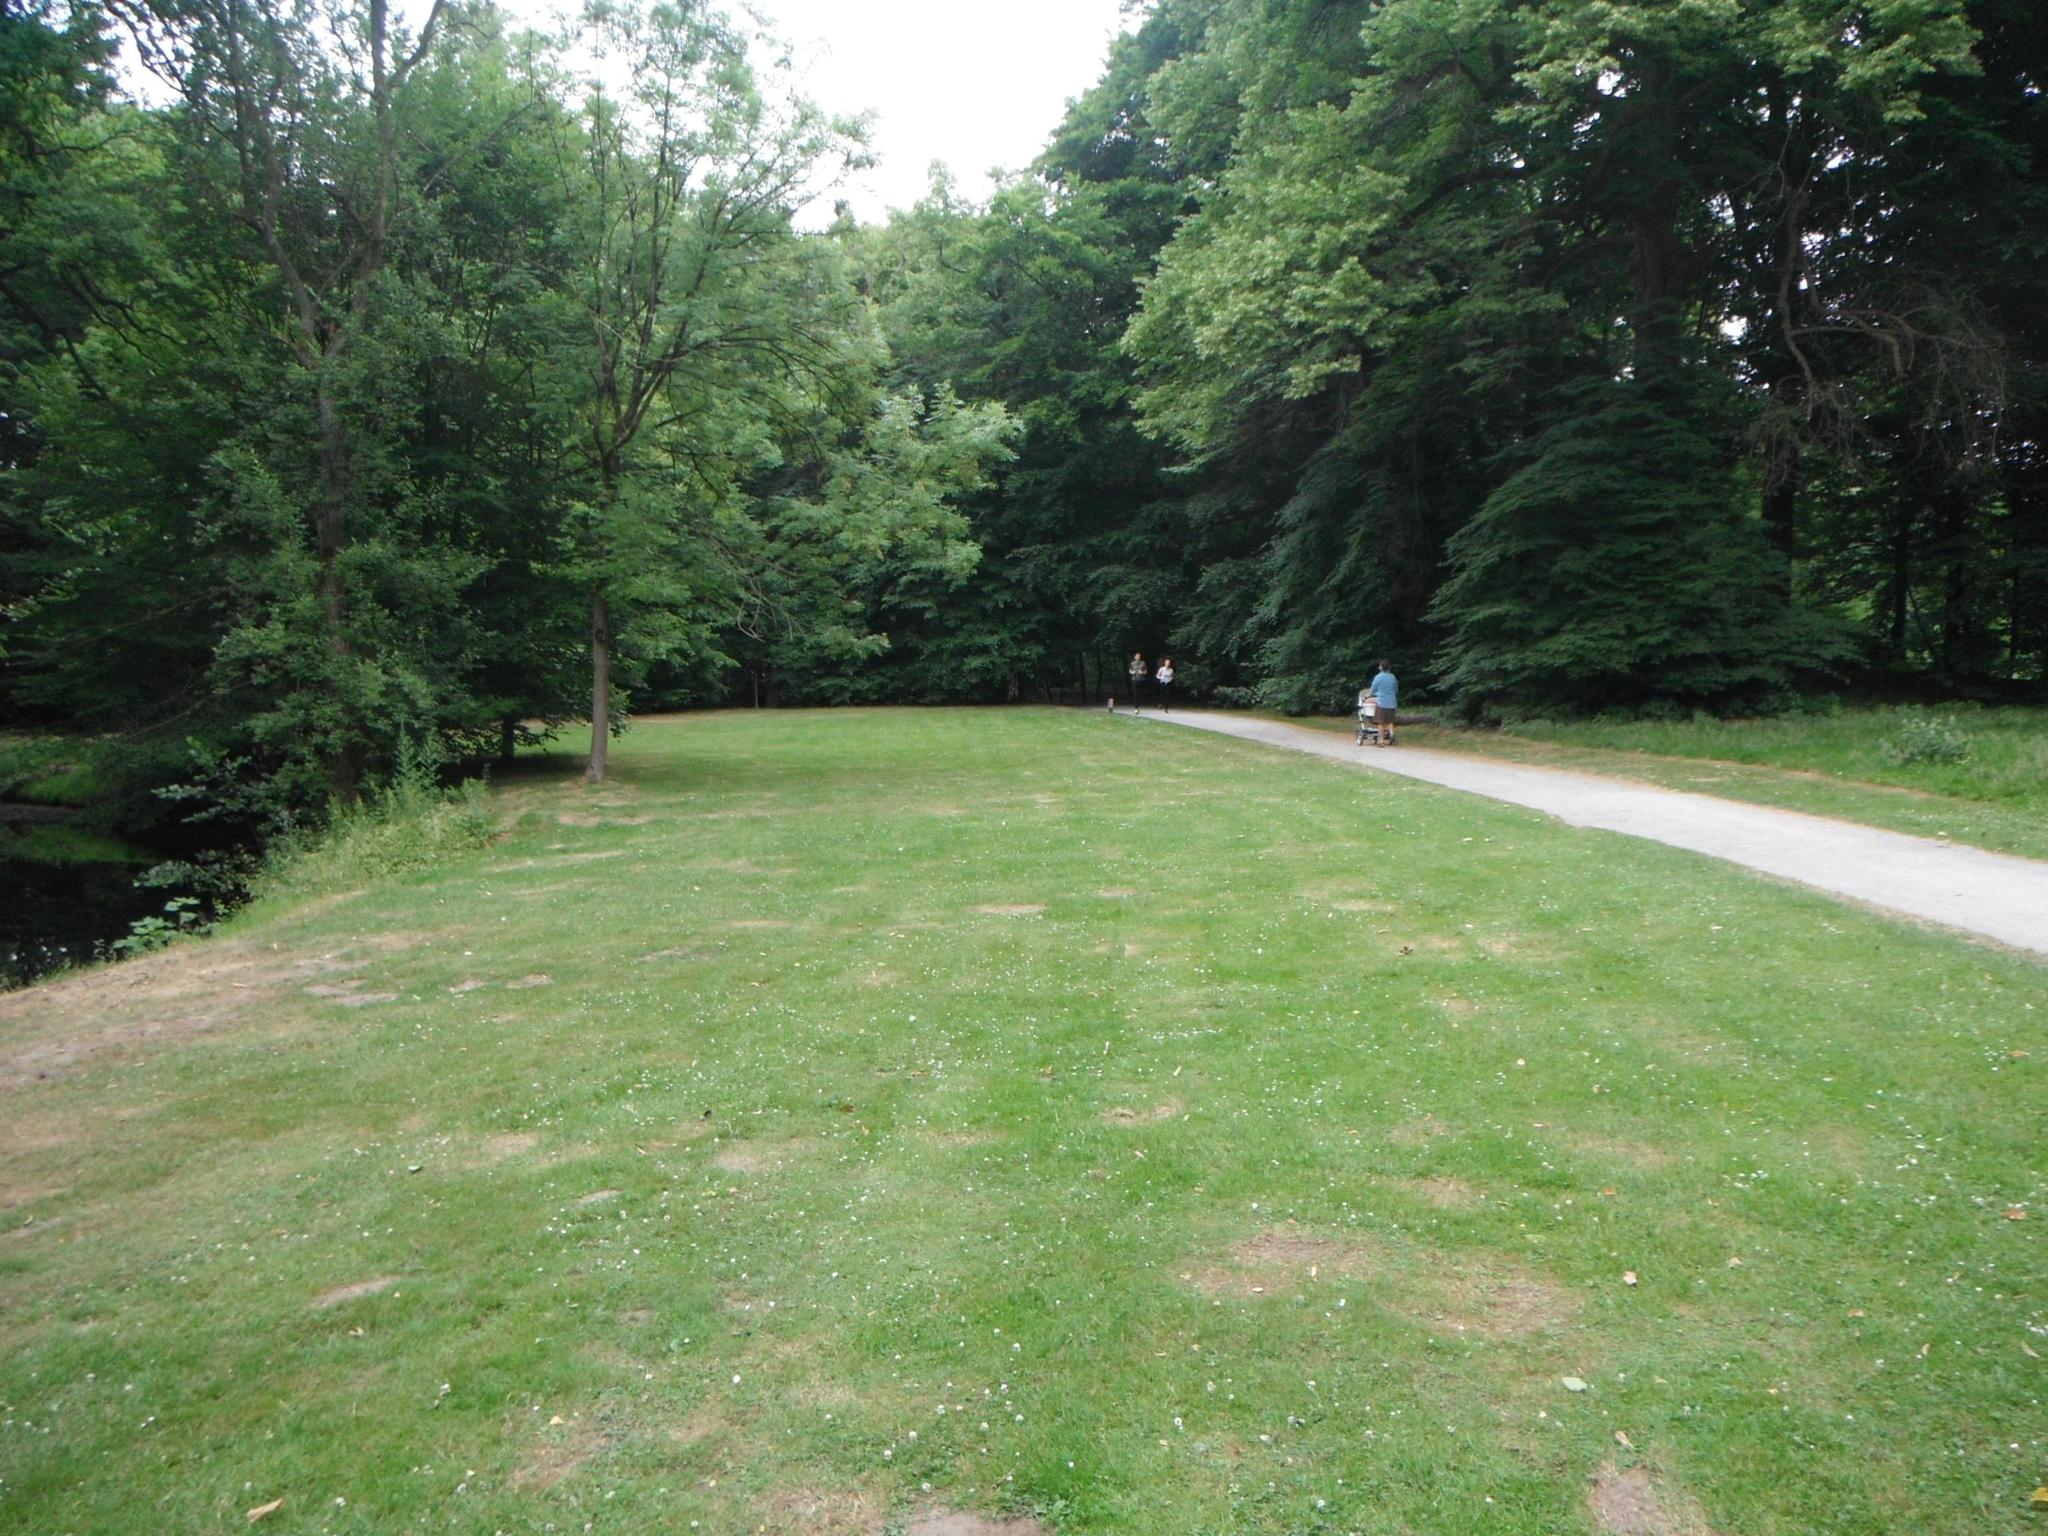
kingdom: Plantae
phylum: Tracheophyta
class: Magnoliopsida
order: Asterales
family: Asteraceae
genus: Bellis
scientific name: Bellis perennis
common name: Lawndaisy
